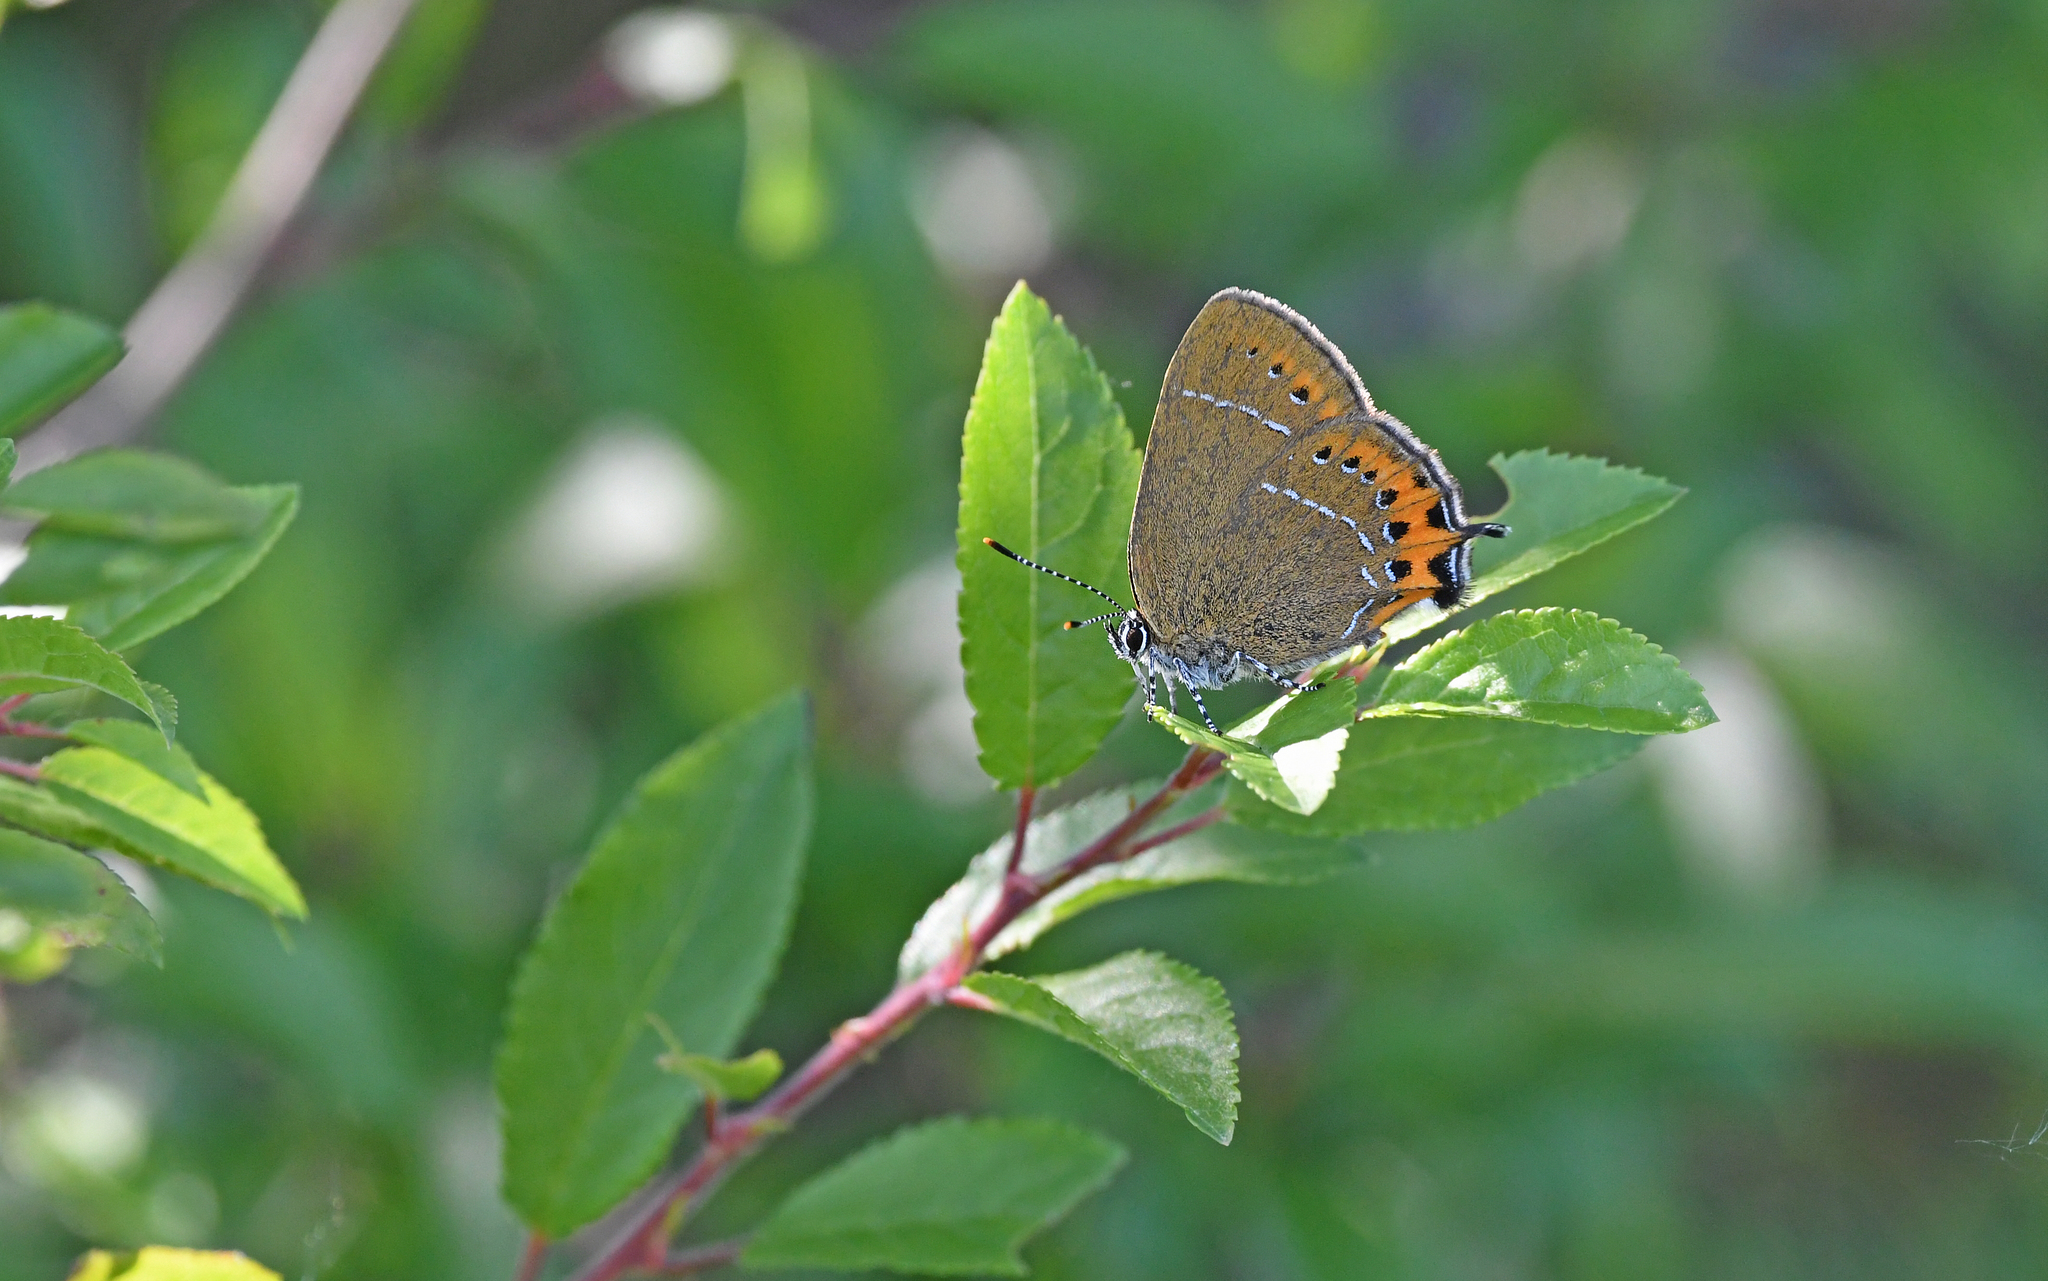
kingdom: Animalia
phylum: Arthropoda
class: Insecta
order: Lepidoptera
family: Lycaenidae
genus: Fixsenia
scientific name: Fixsenia pruni
